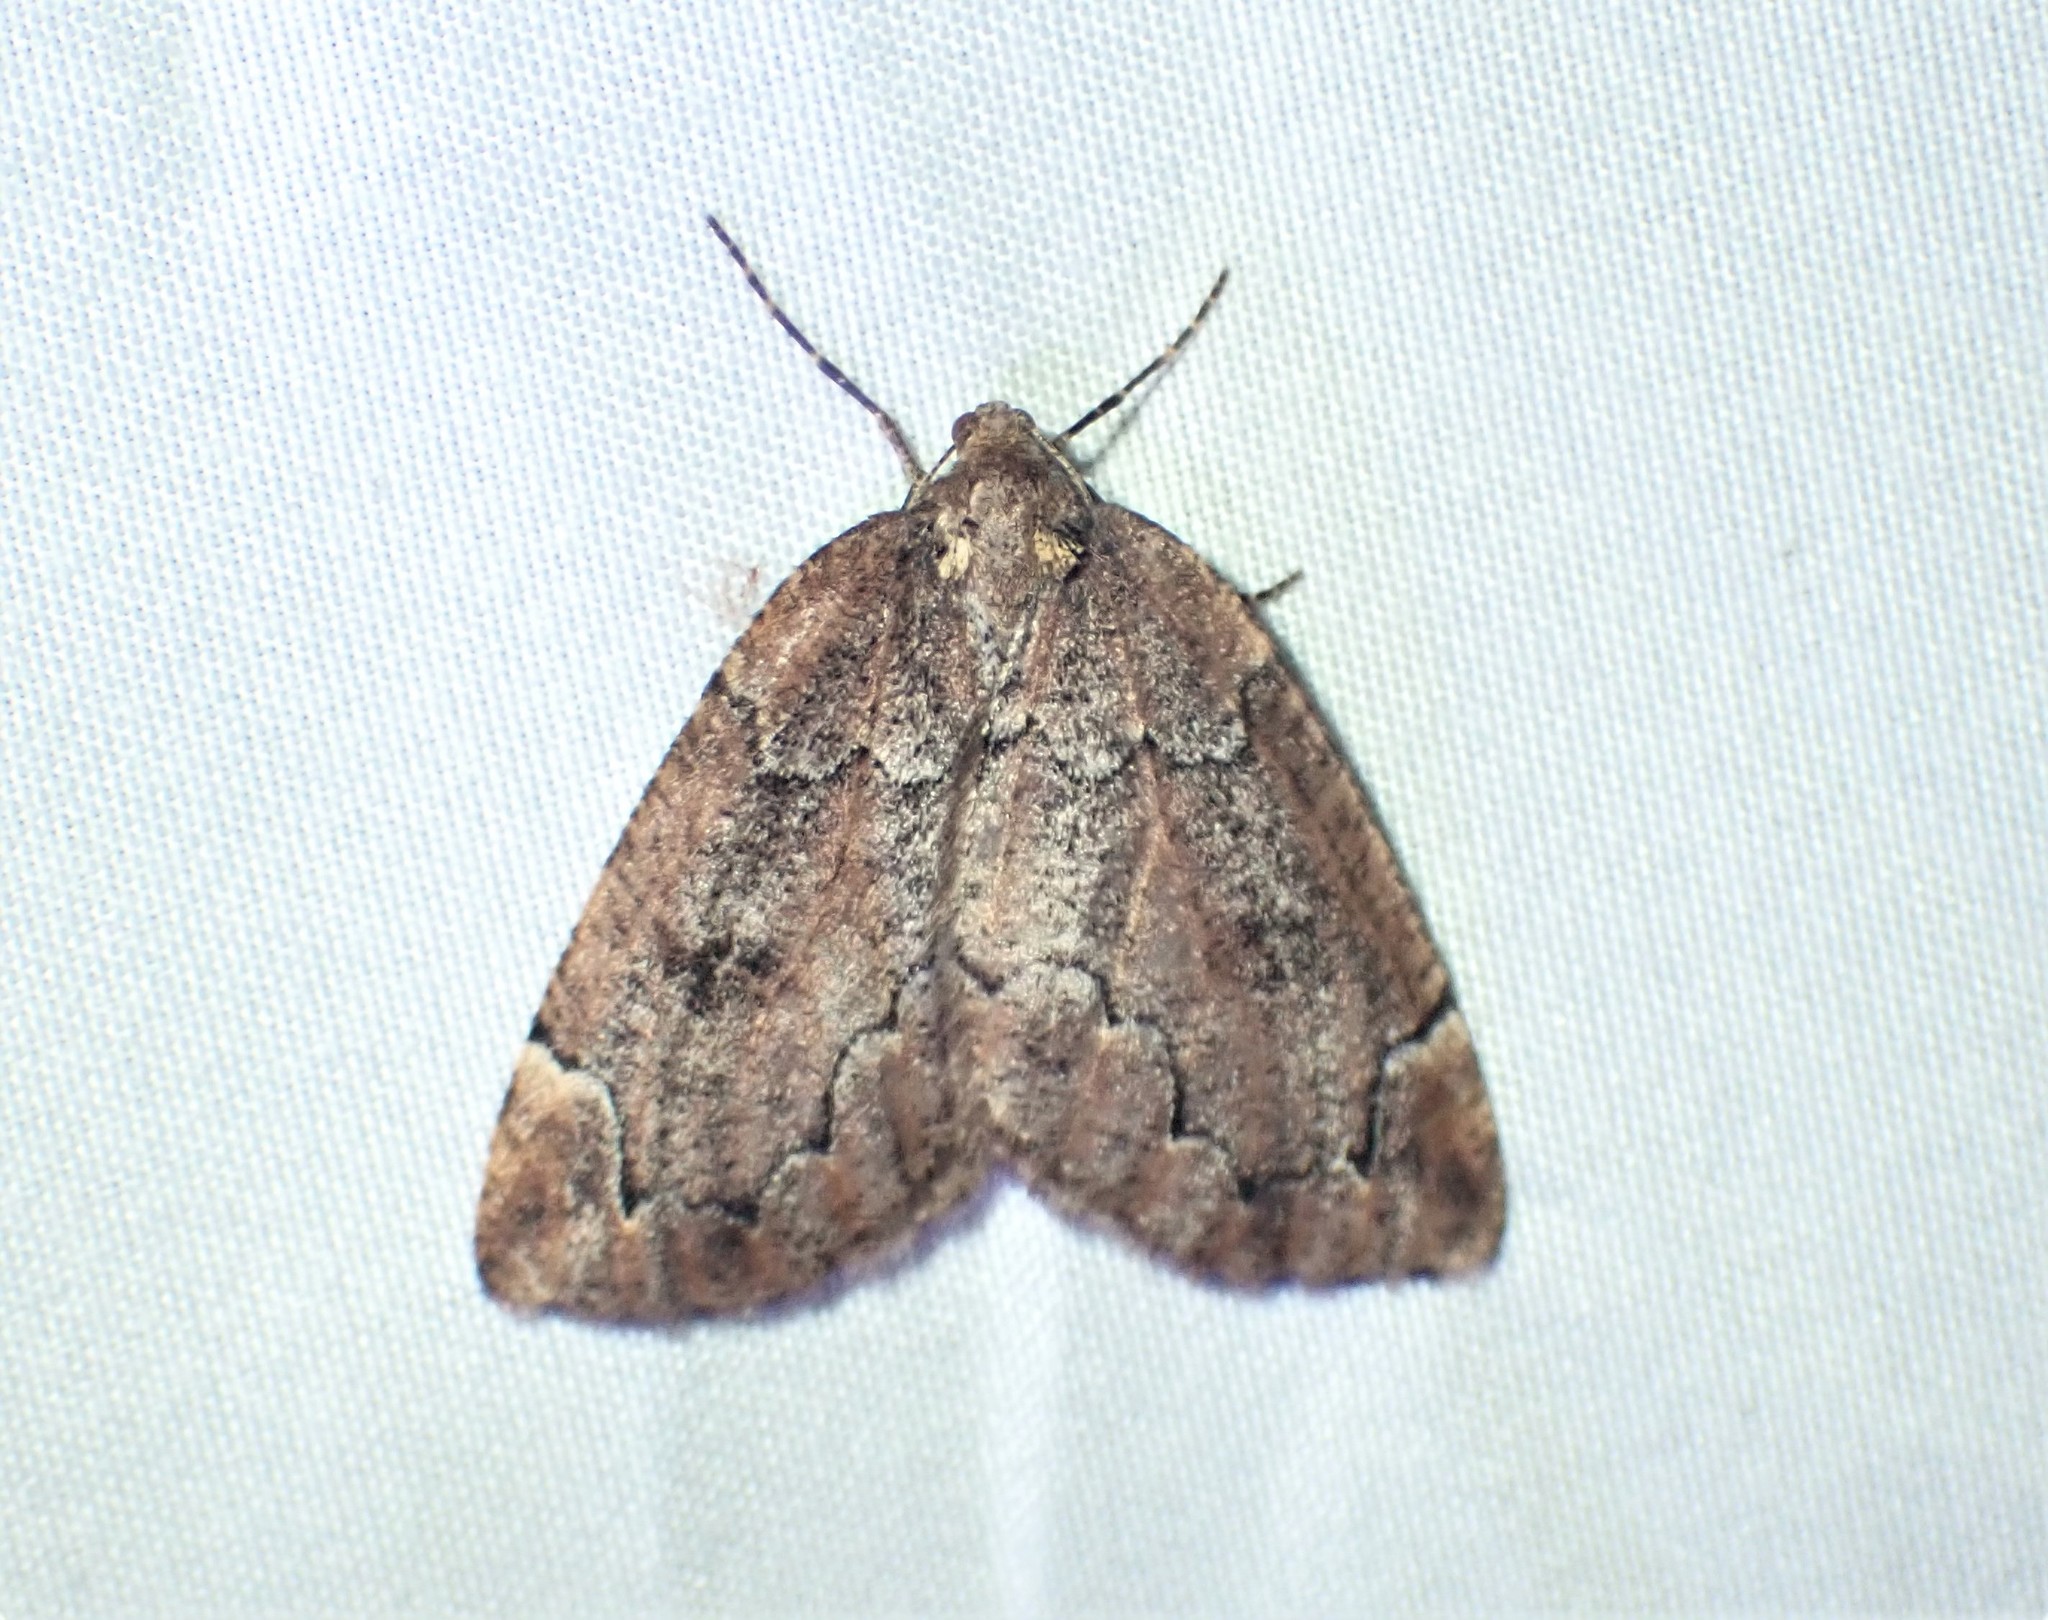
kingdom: Animalia
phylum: Arthropoda
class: Insecta
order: Lepidoptera
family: Geometridae
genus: Spodolepis
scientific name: Spodolepis substriataria
